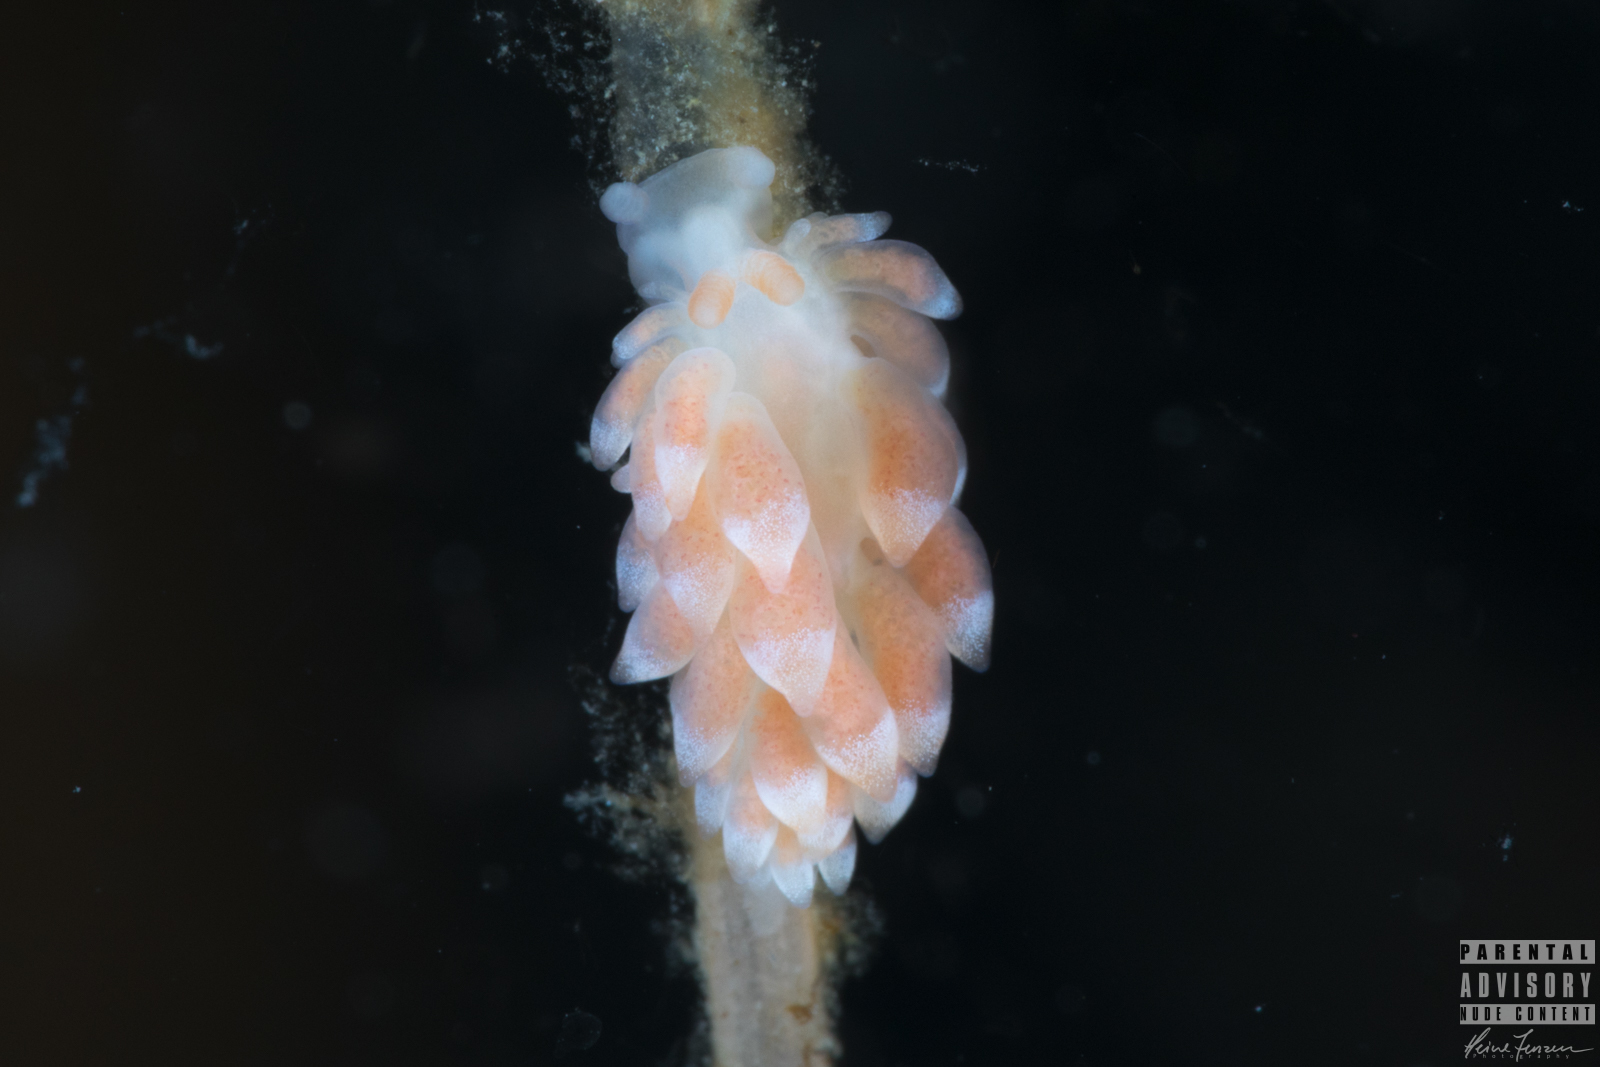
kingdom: Animalia
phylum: Mollusca
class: Gastropoda
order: Nudibranchia
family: Trinchesiidae
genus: Catriona
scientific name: Catriona aurantia
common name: Corange-tip cuthona
